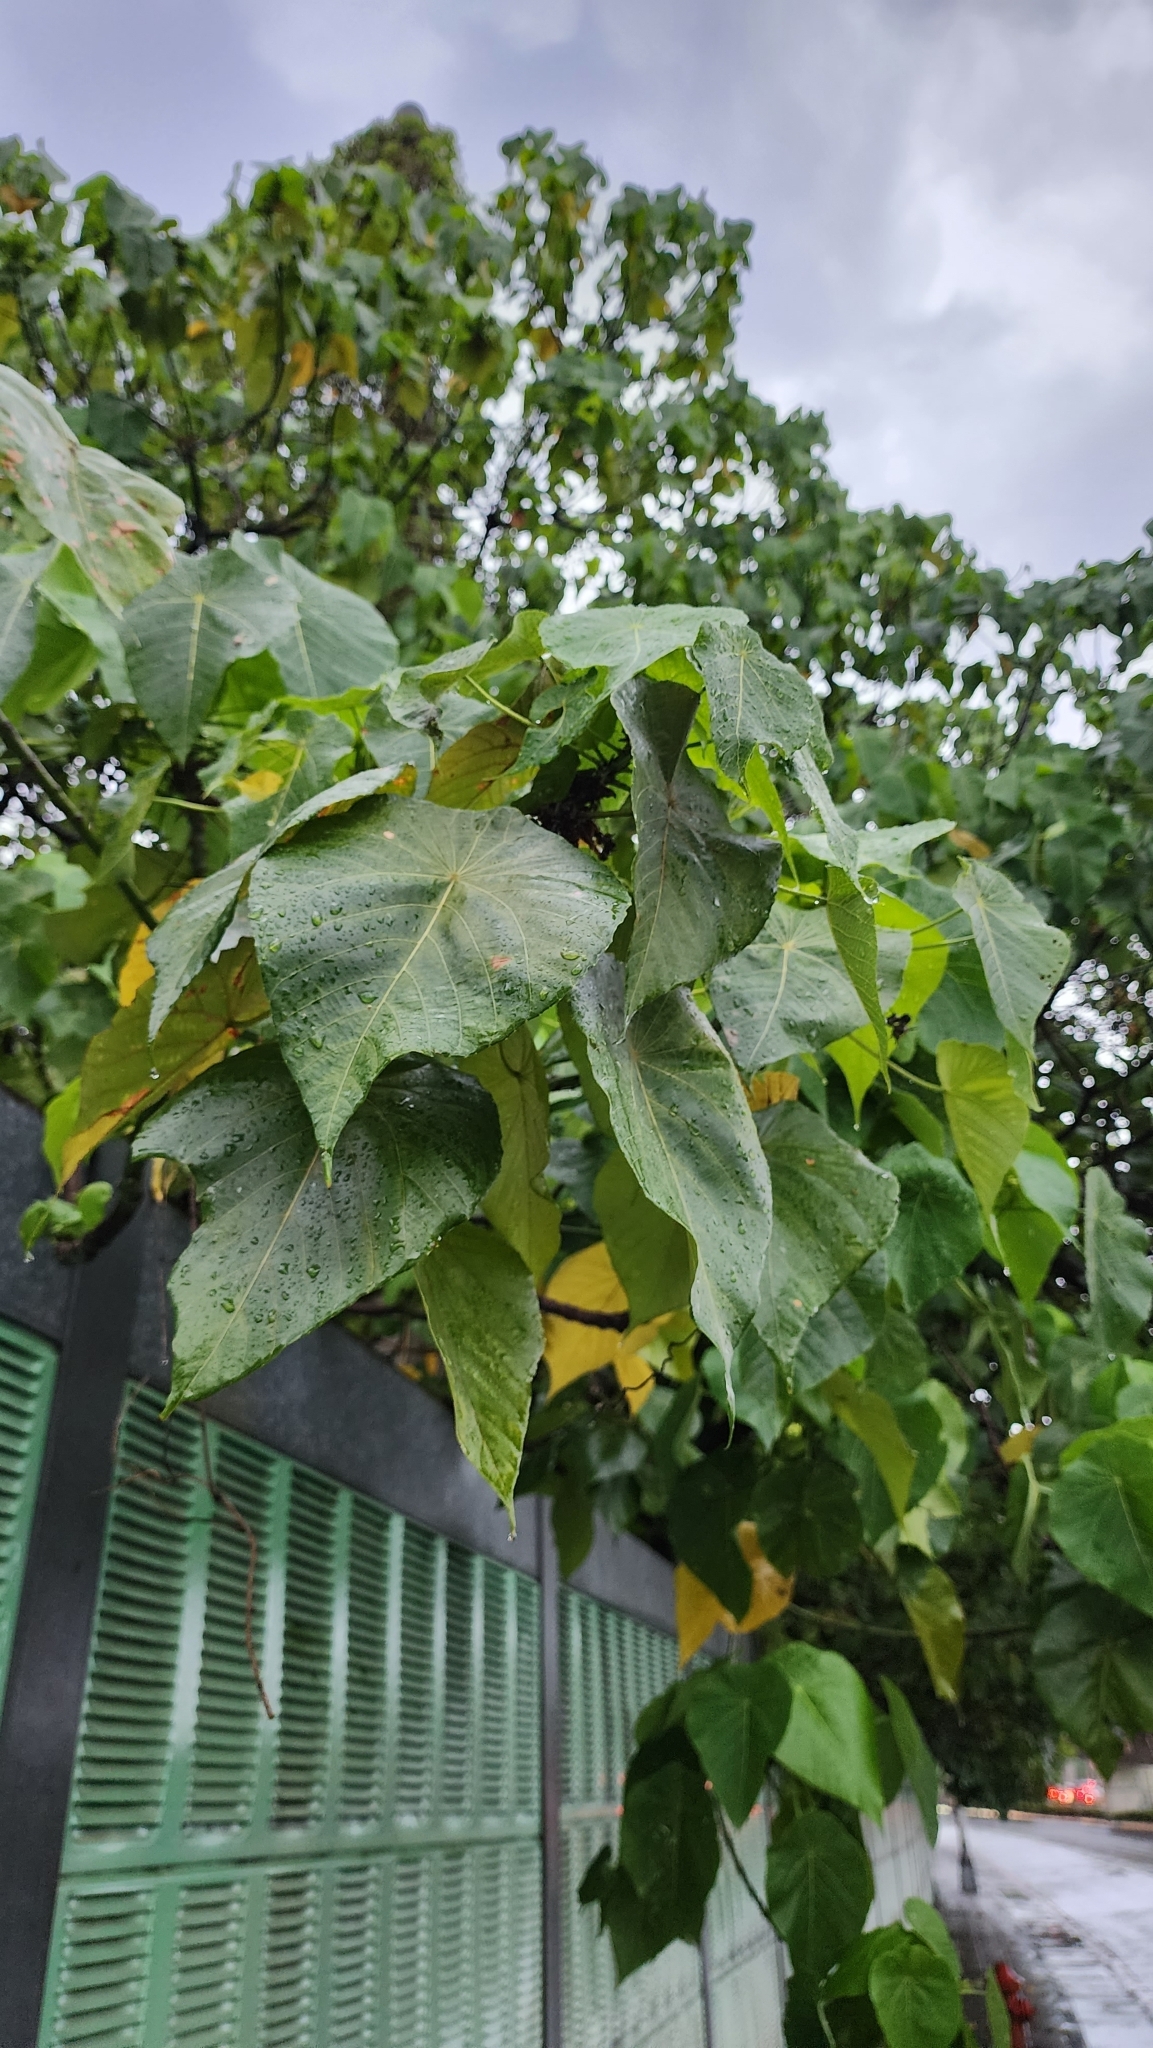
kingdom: Plantae
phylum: Tracheophyta
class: Magnoliopsida
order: Malpighiales
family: Euphorbiaceae
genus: Macaranga
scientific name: Macaranga tanarius
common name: Parasol leaf tree
